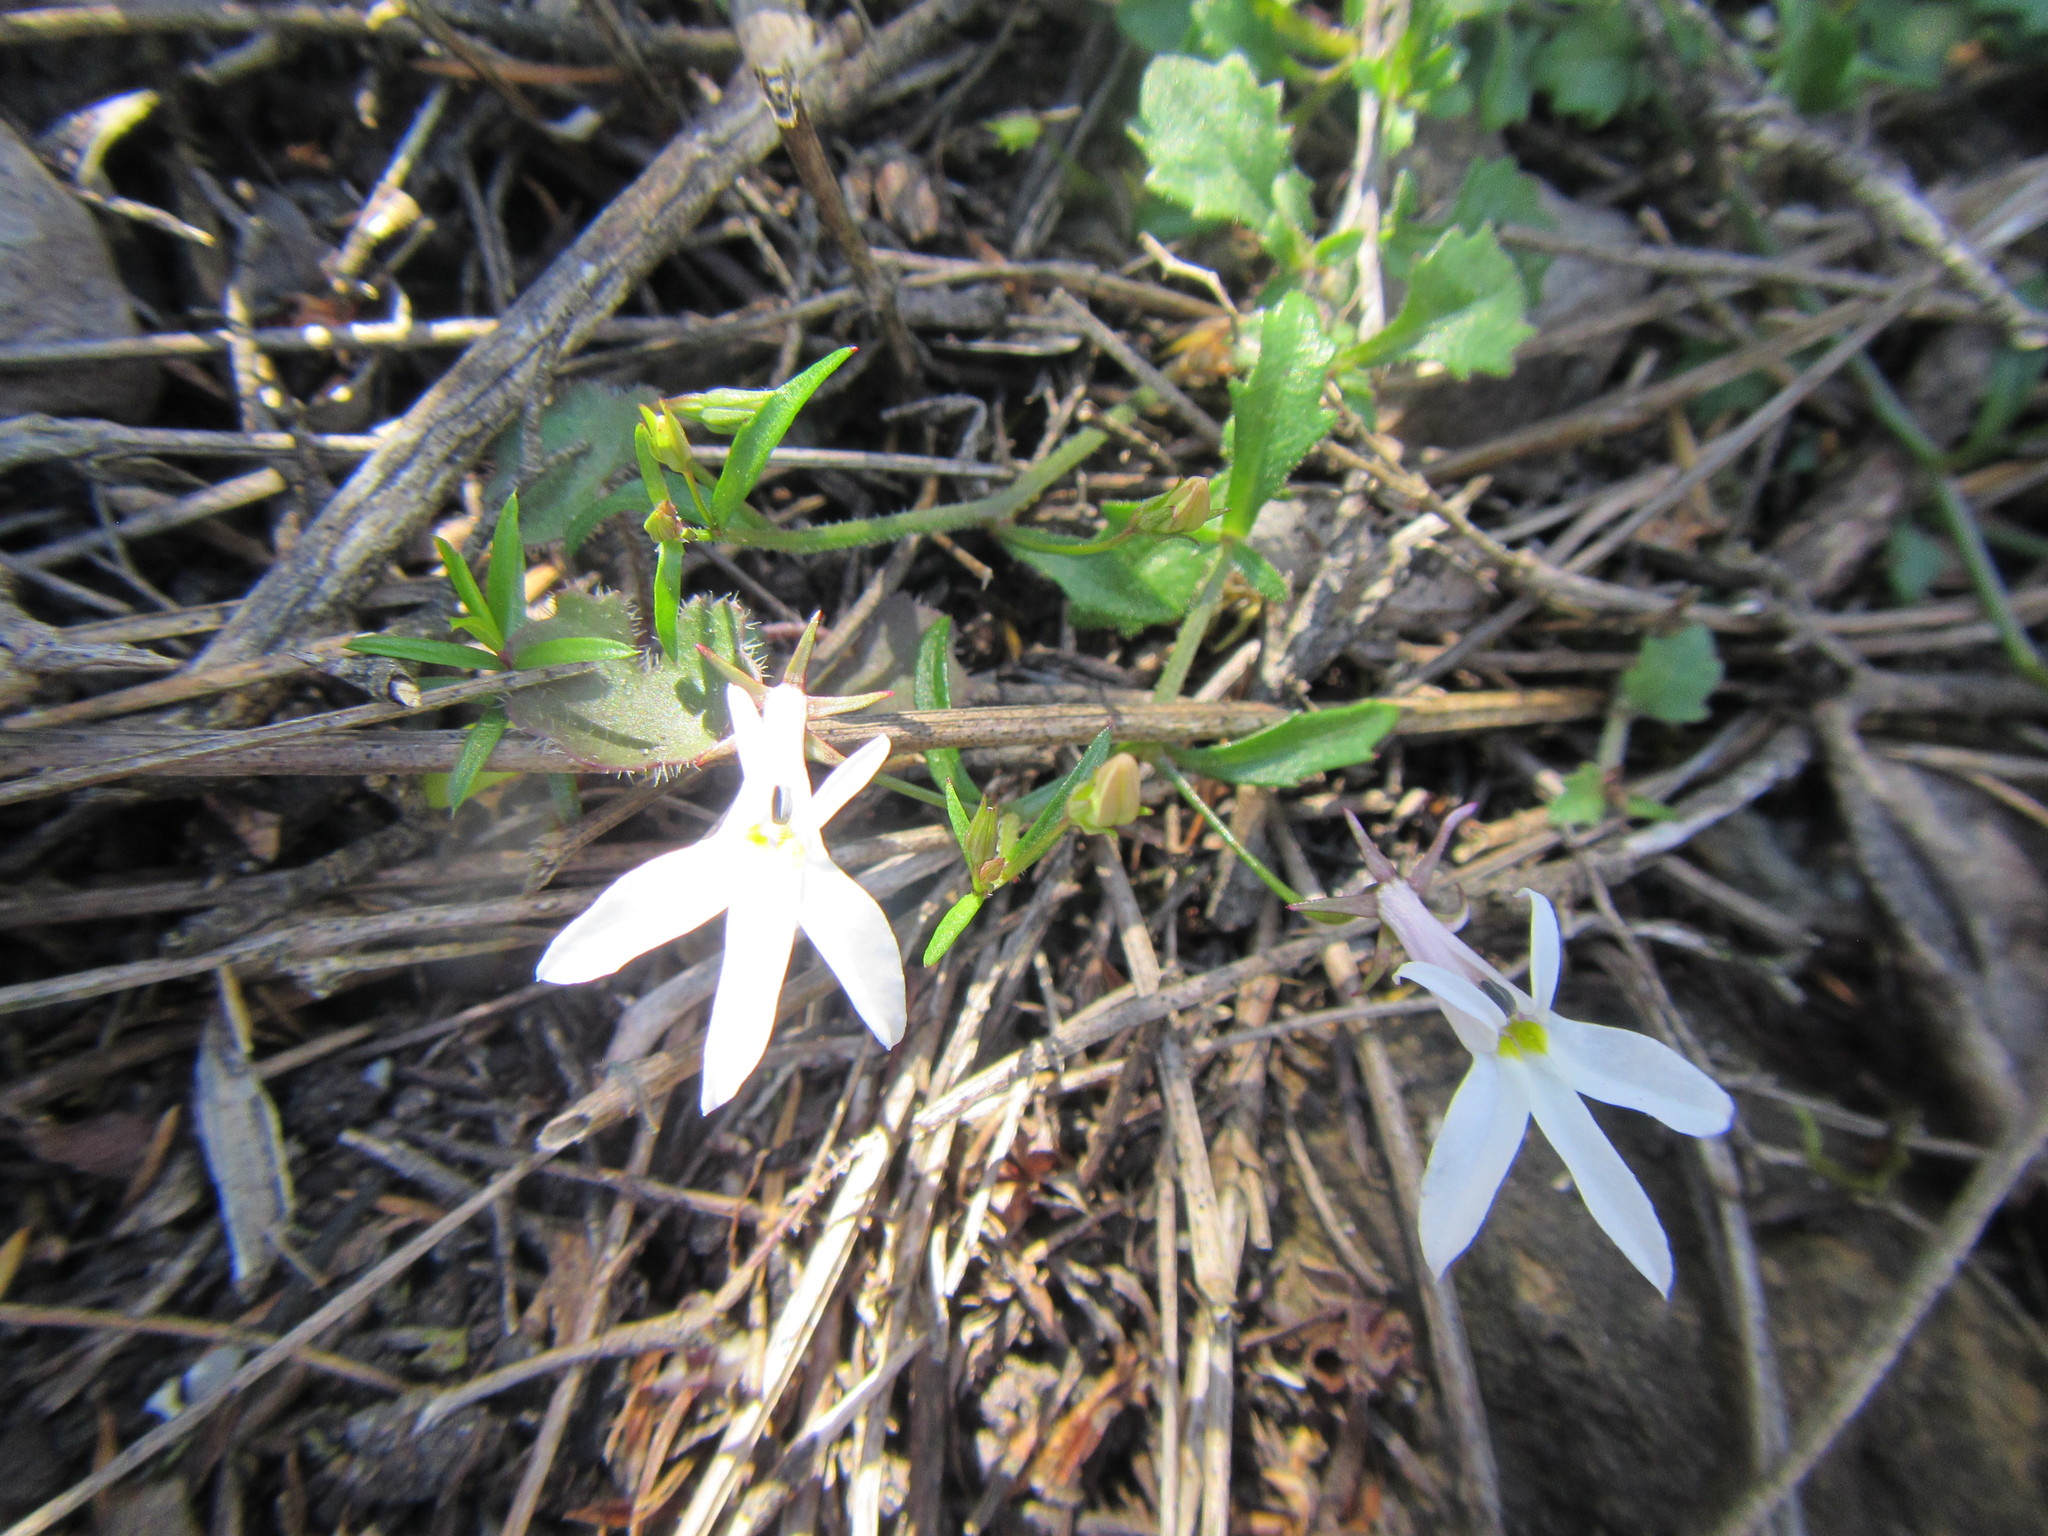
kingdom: Plantae
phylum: Tracheophyta
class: Magnoliopsida
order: Asterales
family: Campanulaceae
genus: Lobelia
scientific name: Lobelia pubescens
